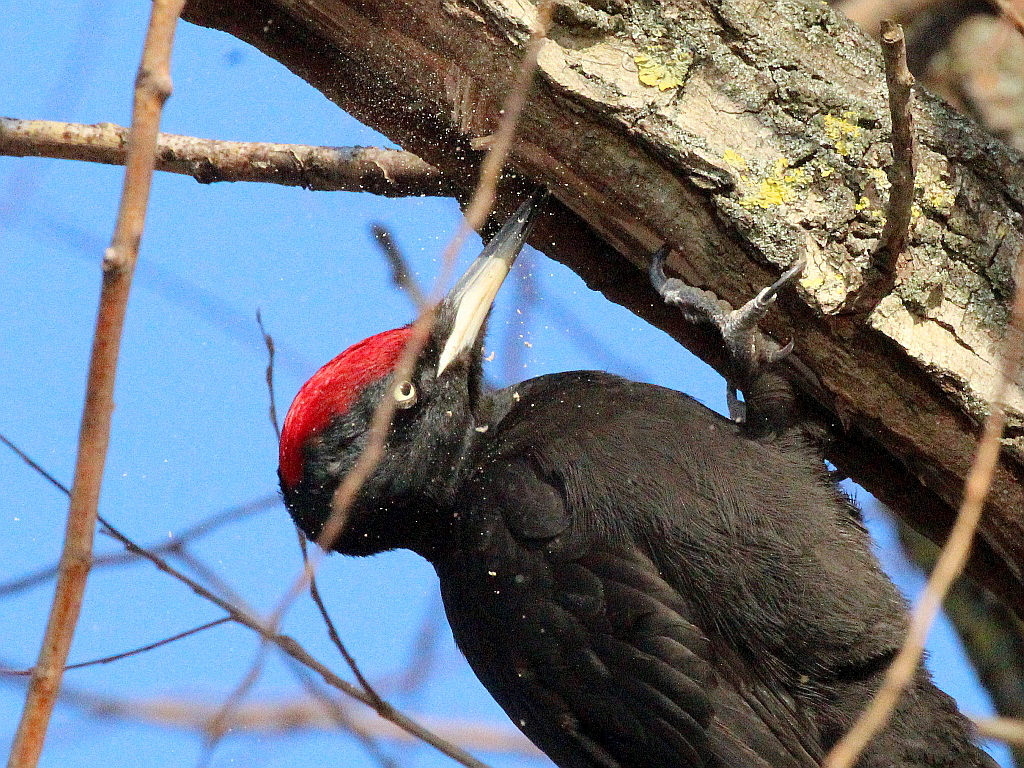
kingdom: Animalia
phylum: Chordata
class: Aves
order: Piciformes
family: Picidae
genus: Dryocopus
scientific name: Dryocopus martius
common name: Black woodpecker
